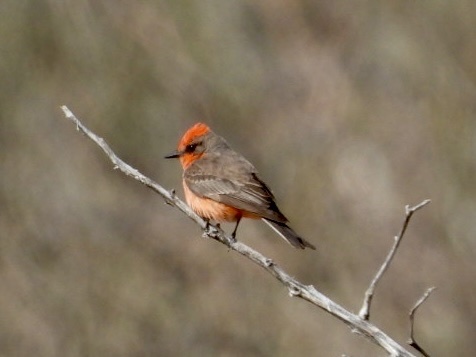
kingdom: Animalia
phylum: Chordata
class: Aves
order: Passeriformes
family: Tyrannidae
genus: Pyrocephalus
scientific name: Pyrocephalus rubinus
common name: Vermilion flycatcher
